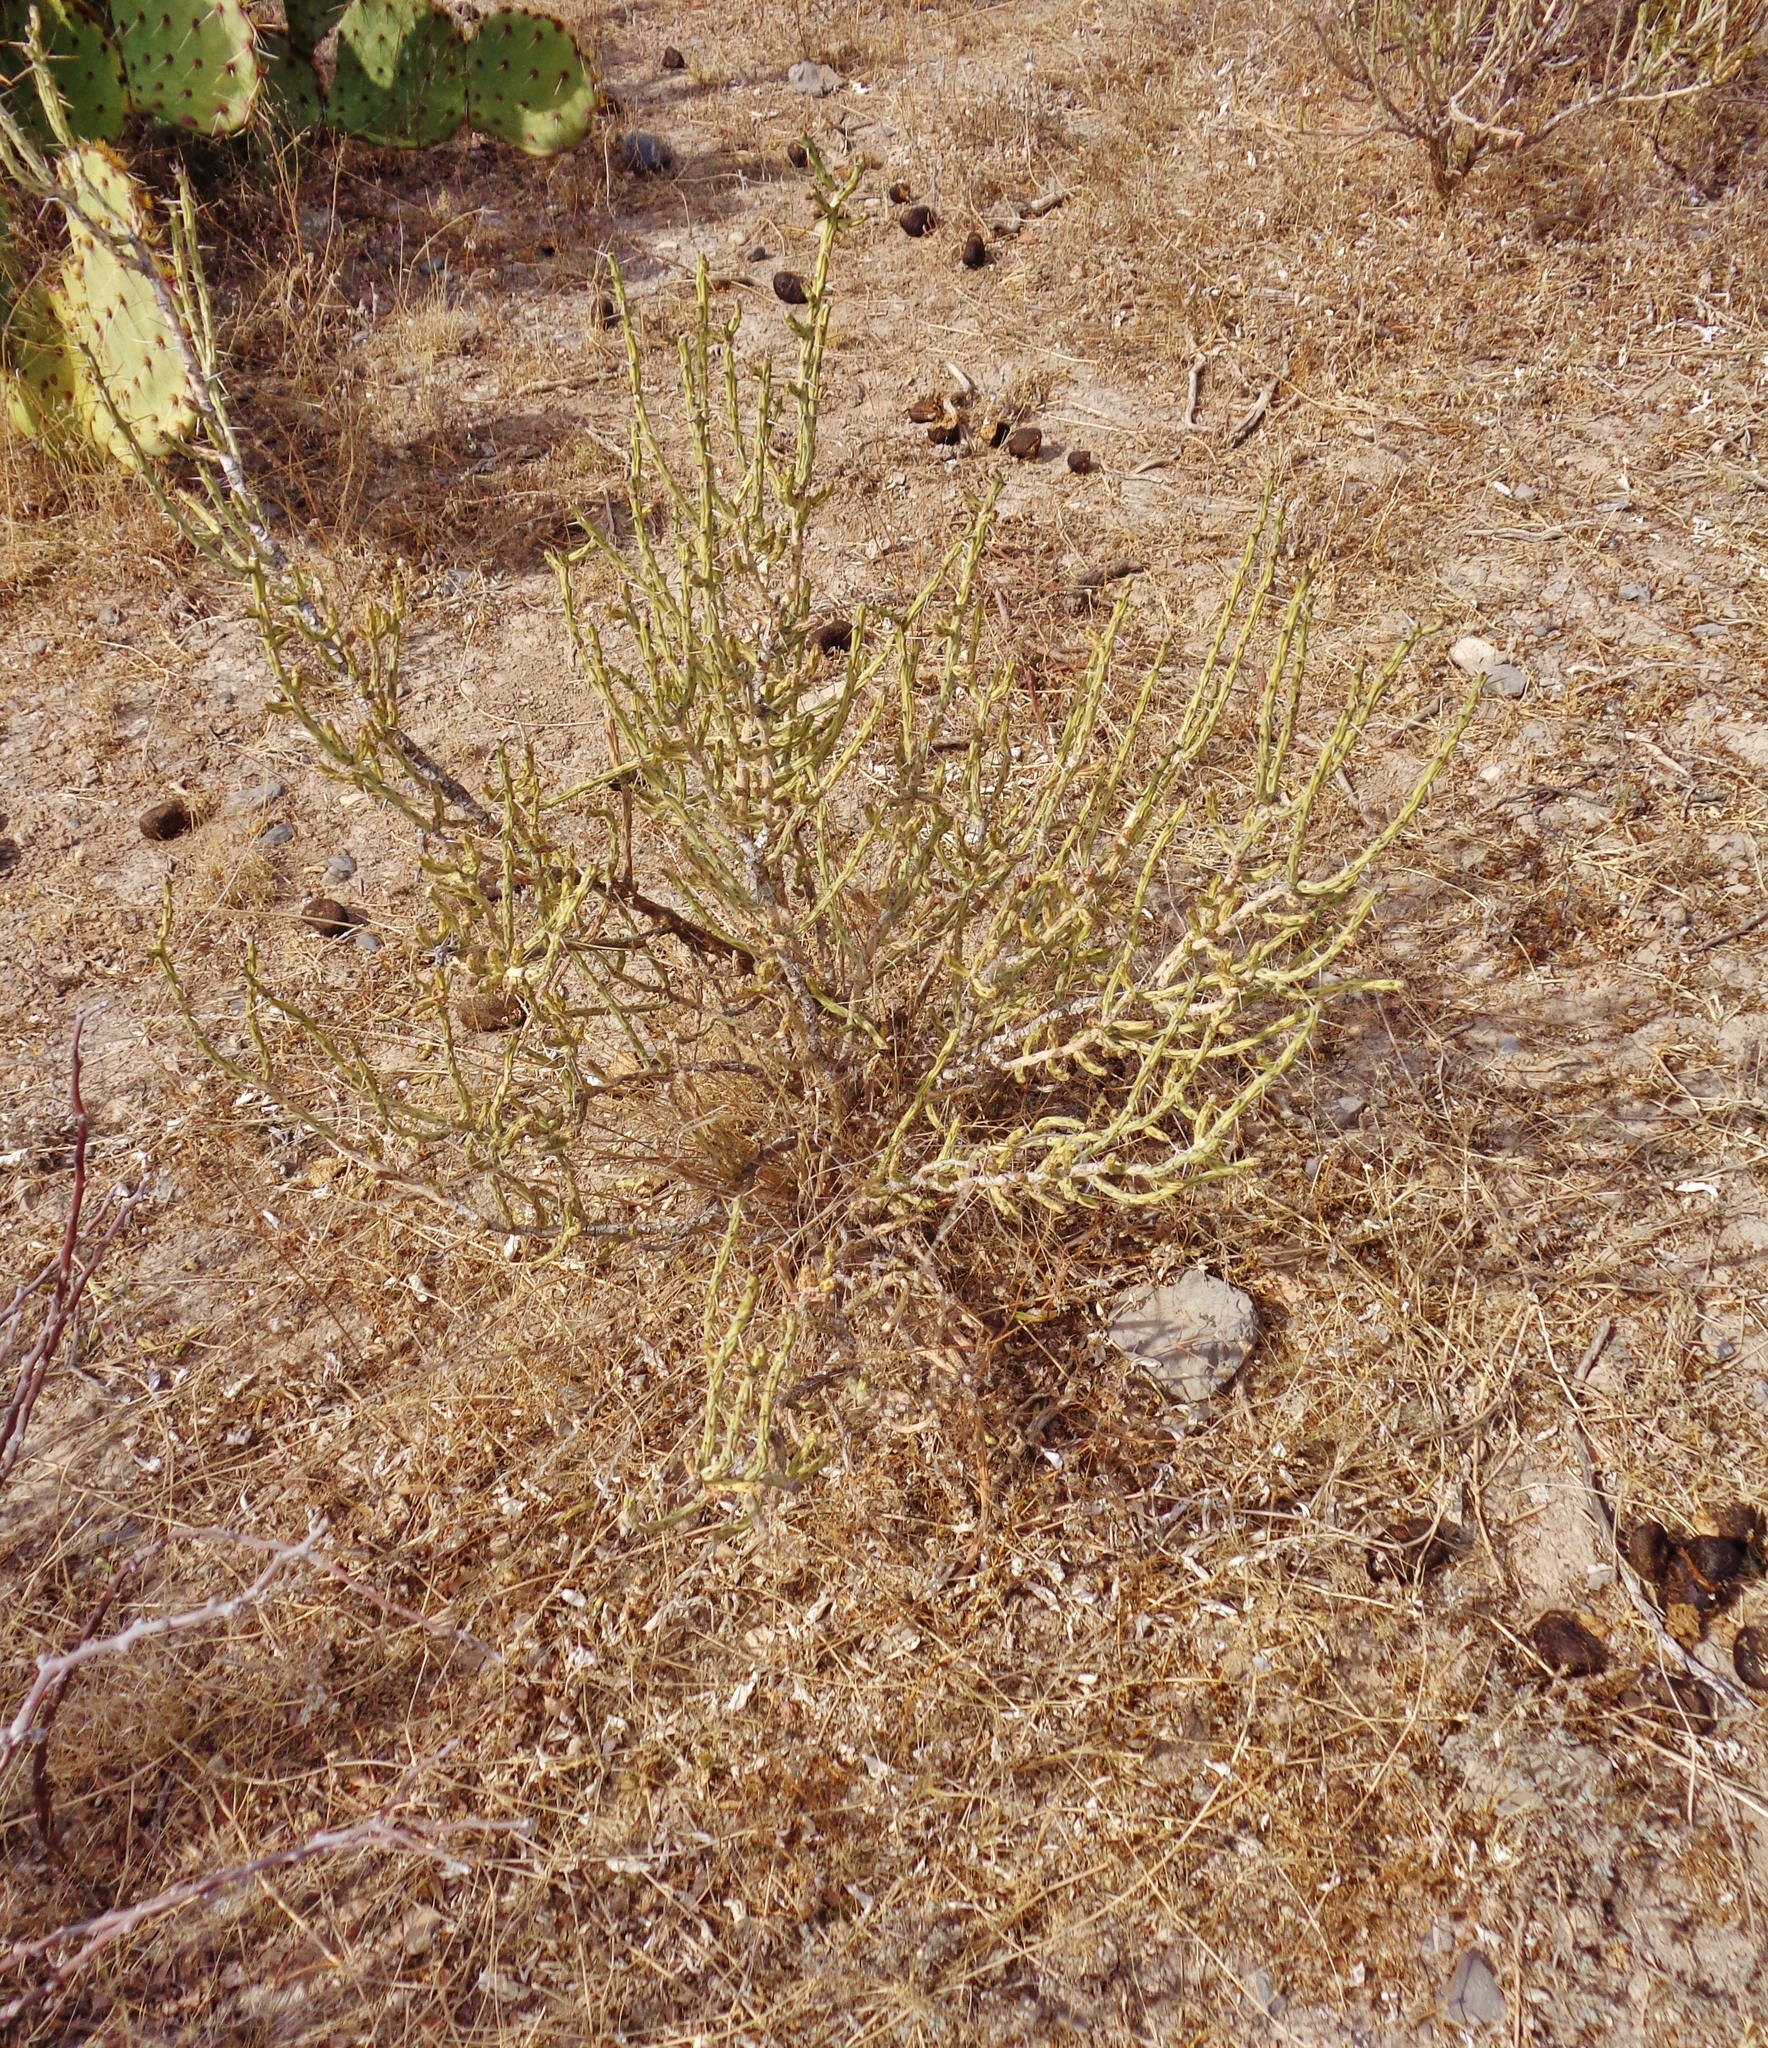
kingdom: Plantae
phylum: Tracheophyta
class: Magnoliopsida
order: Caryophyllales
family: Cactaceae
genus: Cylindropuntia
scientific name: Cylindropuntia leptocaulis
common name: Christmas cactus
